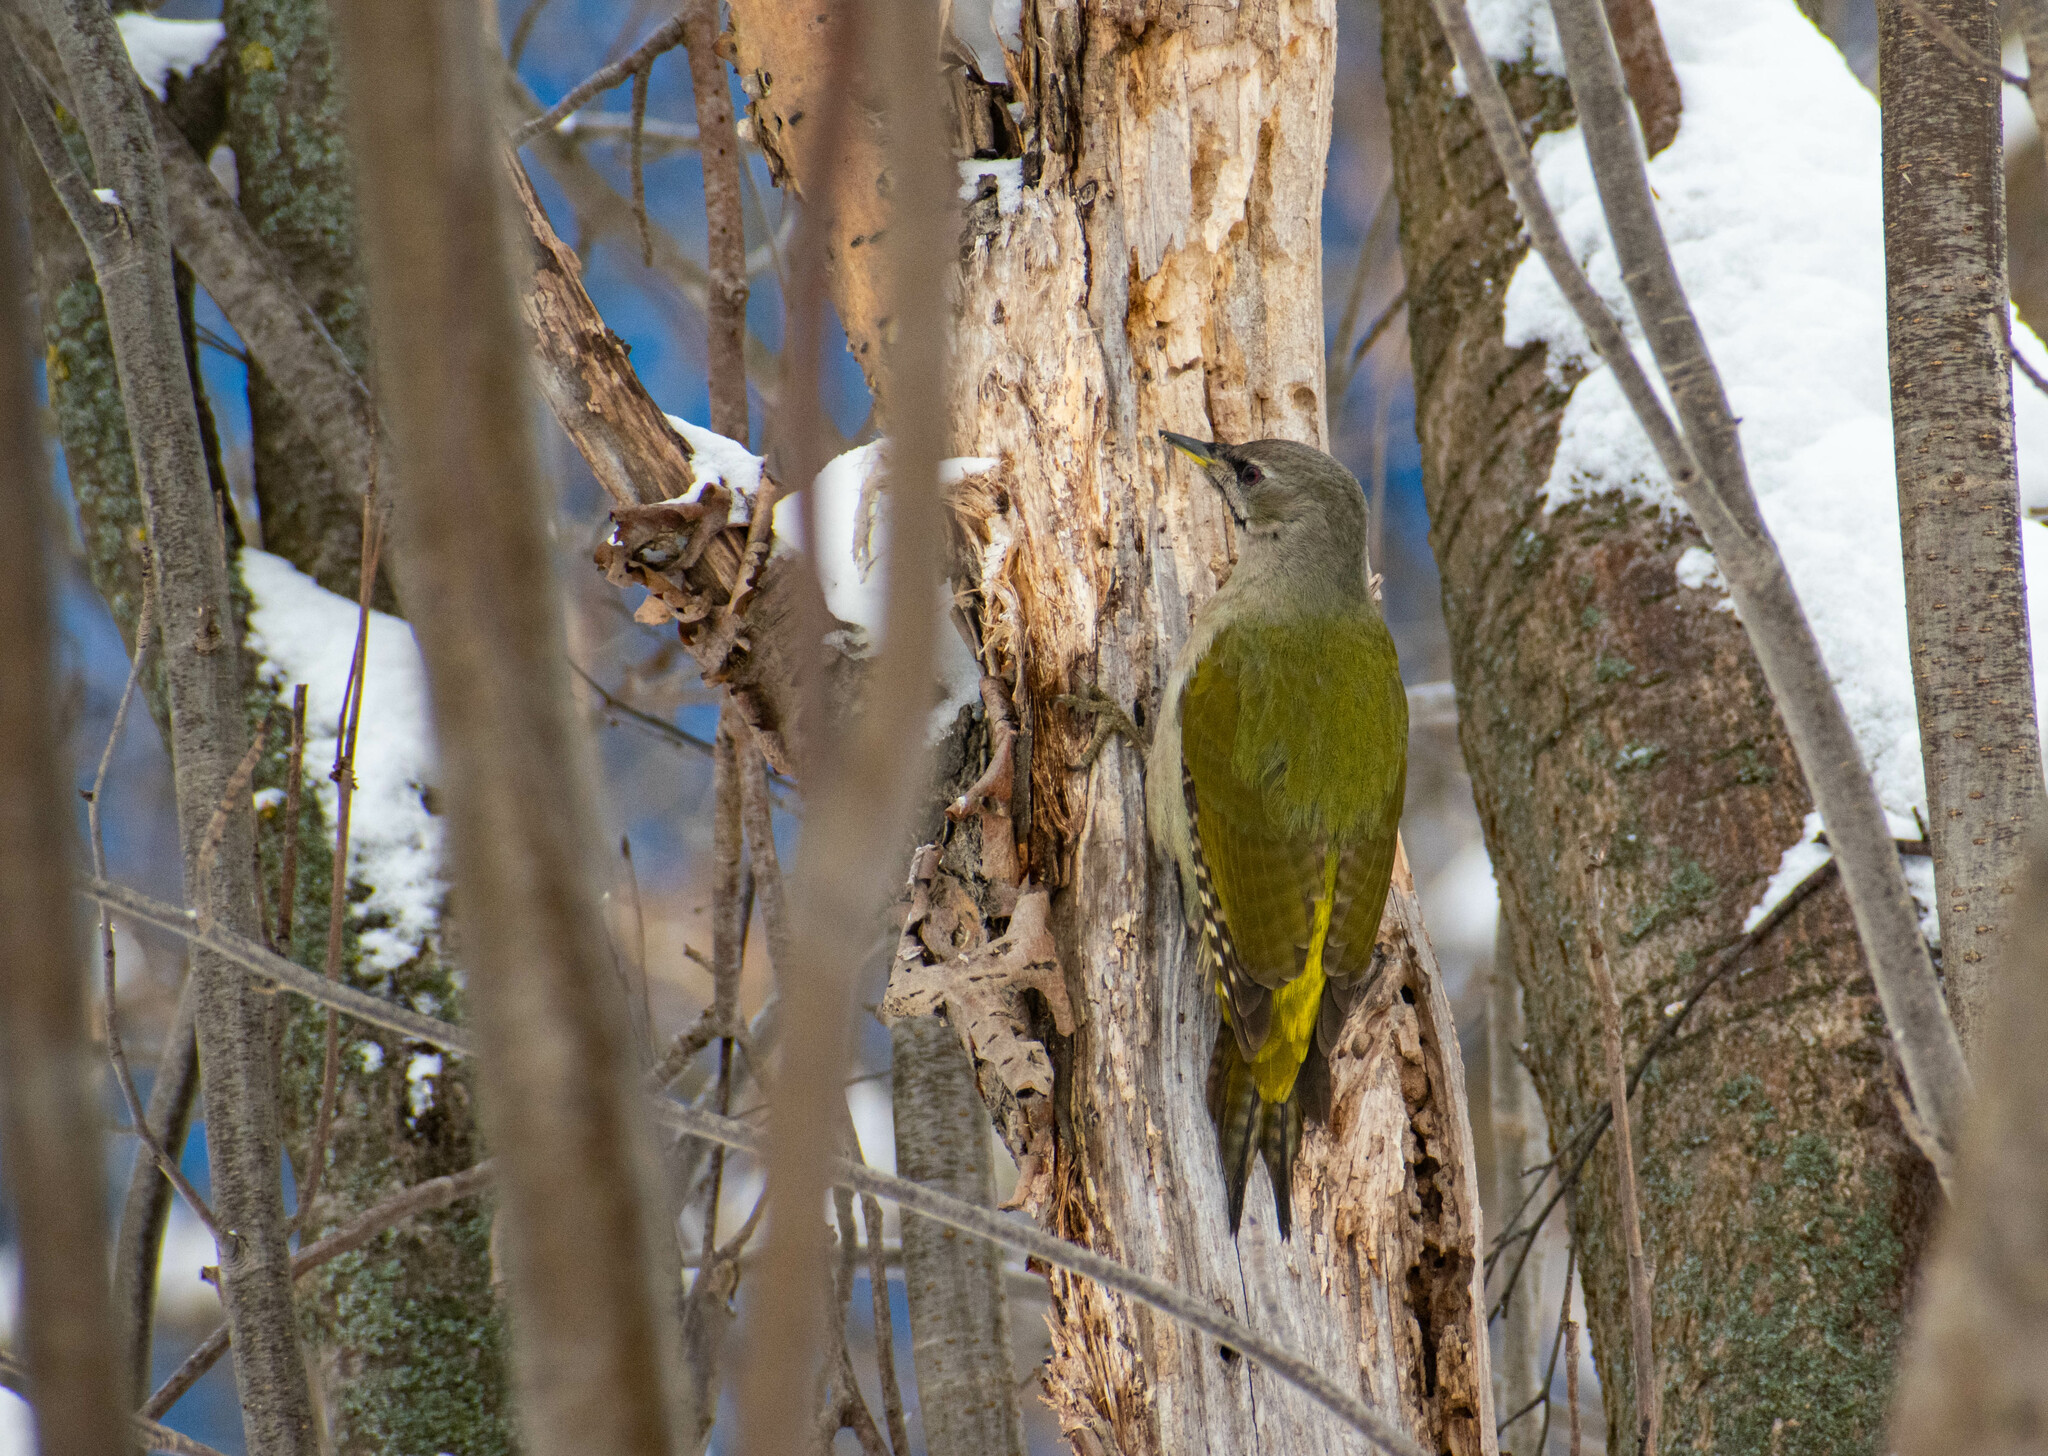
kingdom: Animalia
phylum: Chordata
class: Aves
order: Piciformes
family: Picidae
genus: Picus
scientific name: Picus canus
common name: Grey-headed woodpecker
